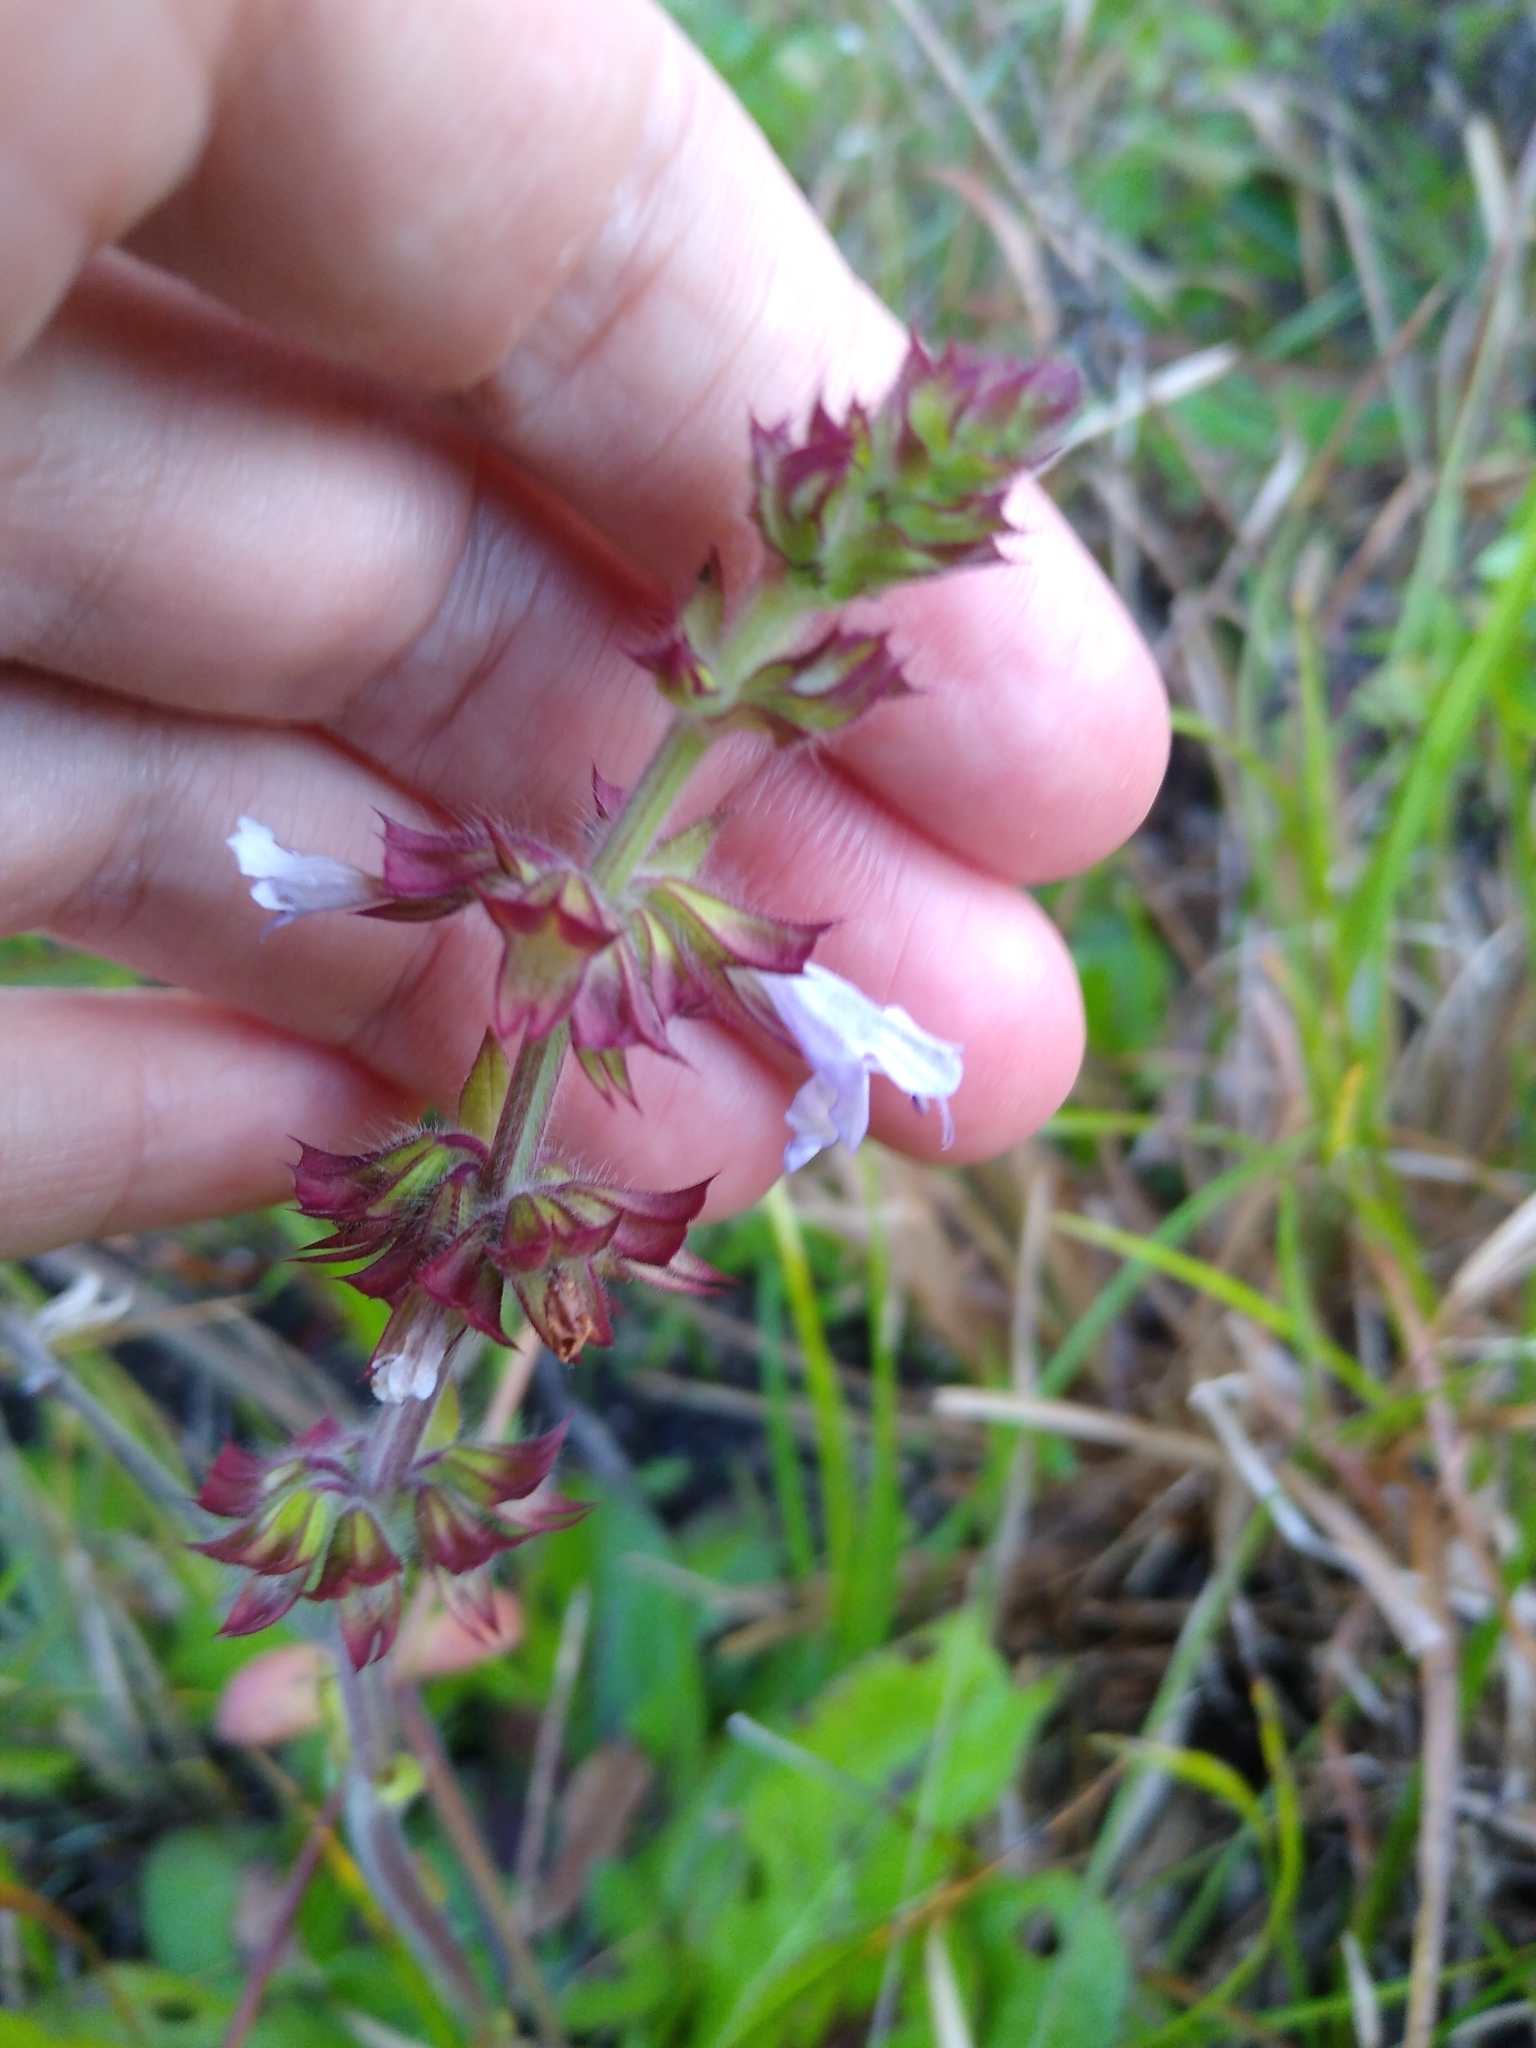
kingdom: Plantae
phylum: Tracheophyta
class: Magnoliopsida
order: Lamiales
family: Lamiaceae
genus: Salvia
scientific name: Salvia lyrata
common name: Cancerweed
